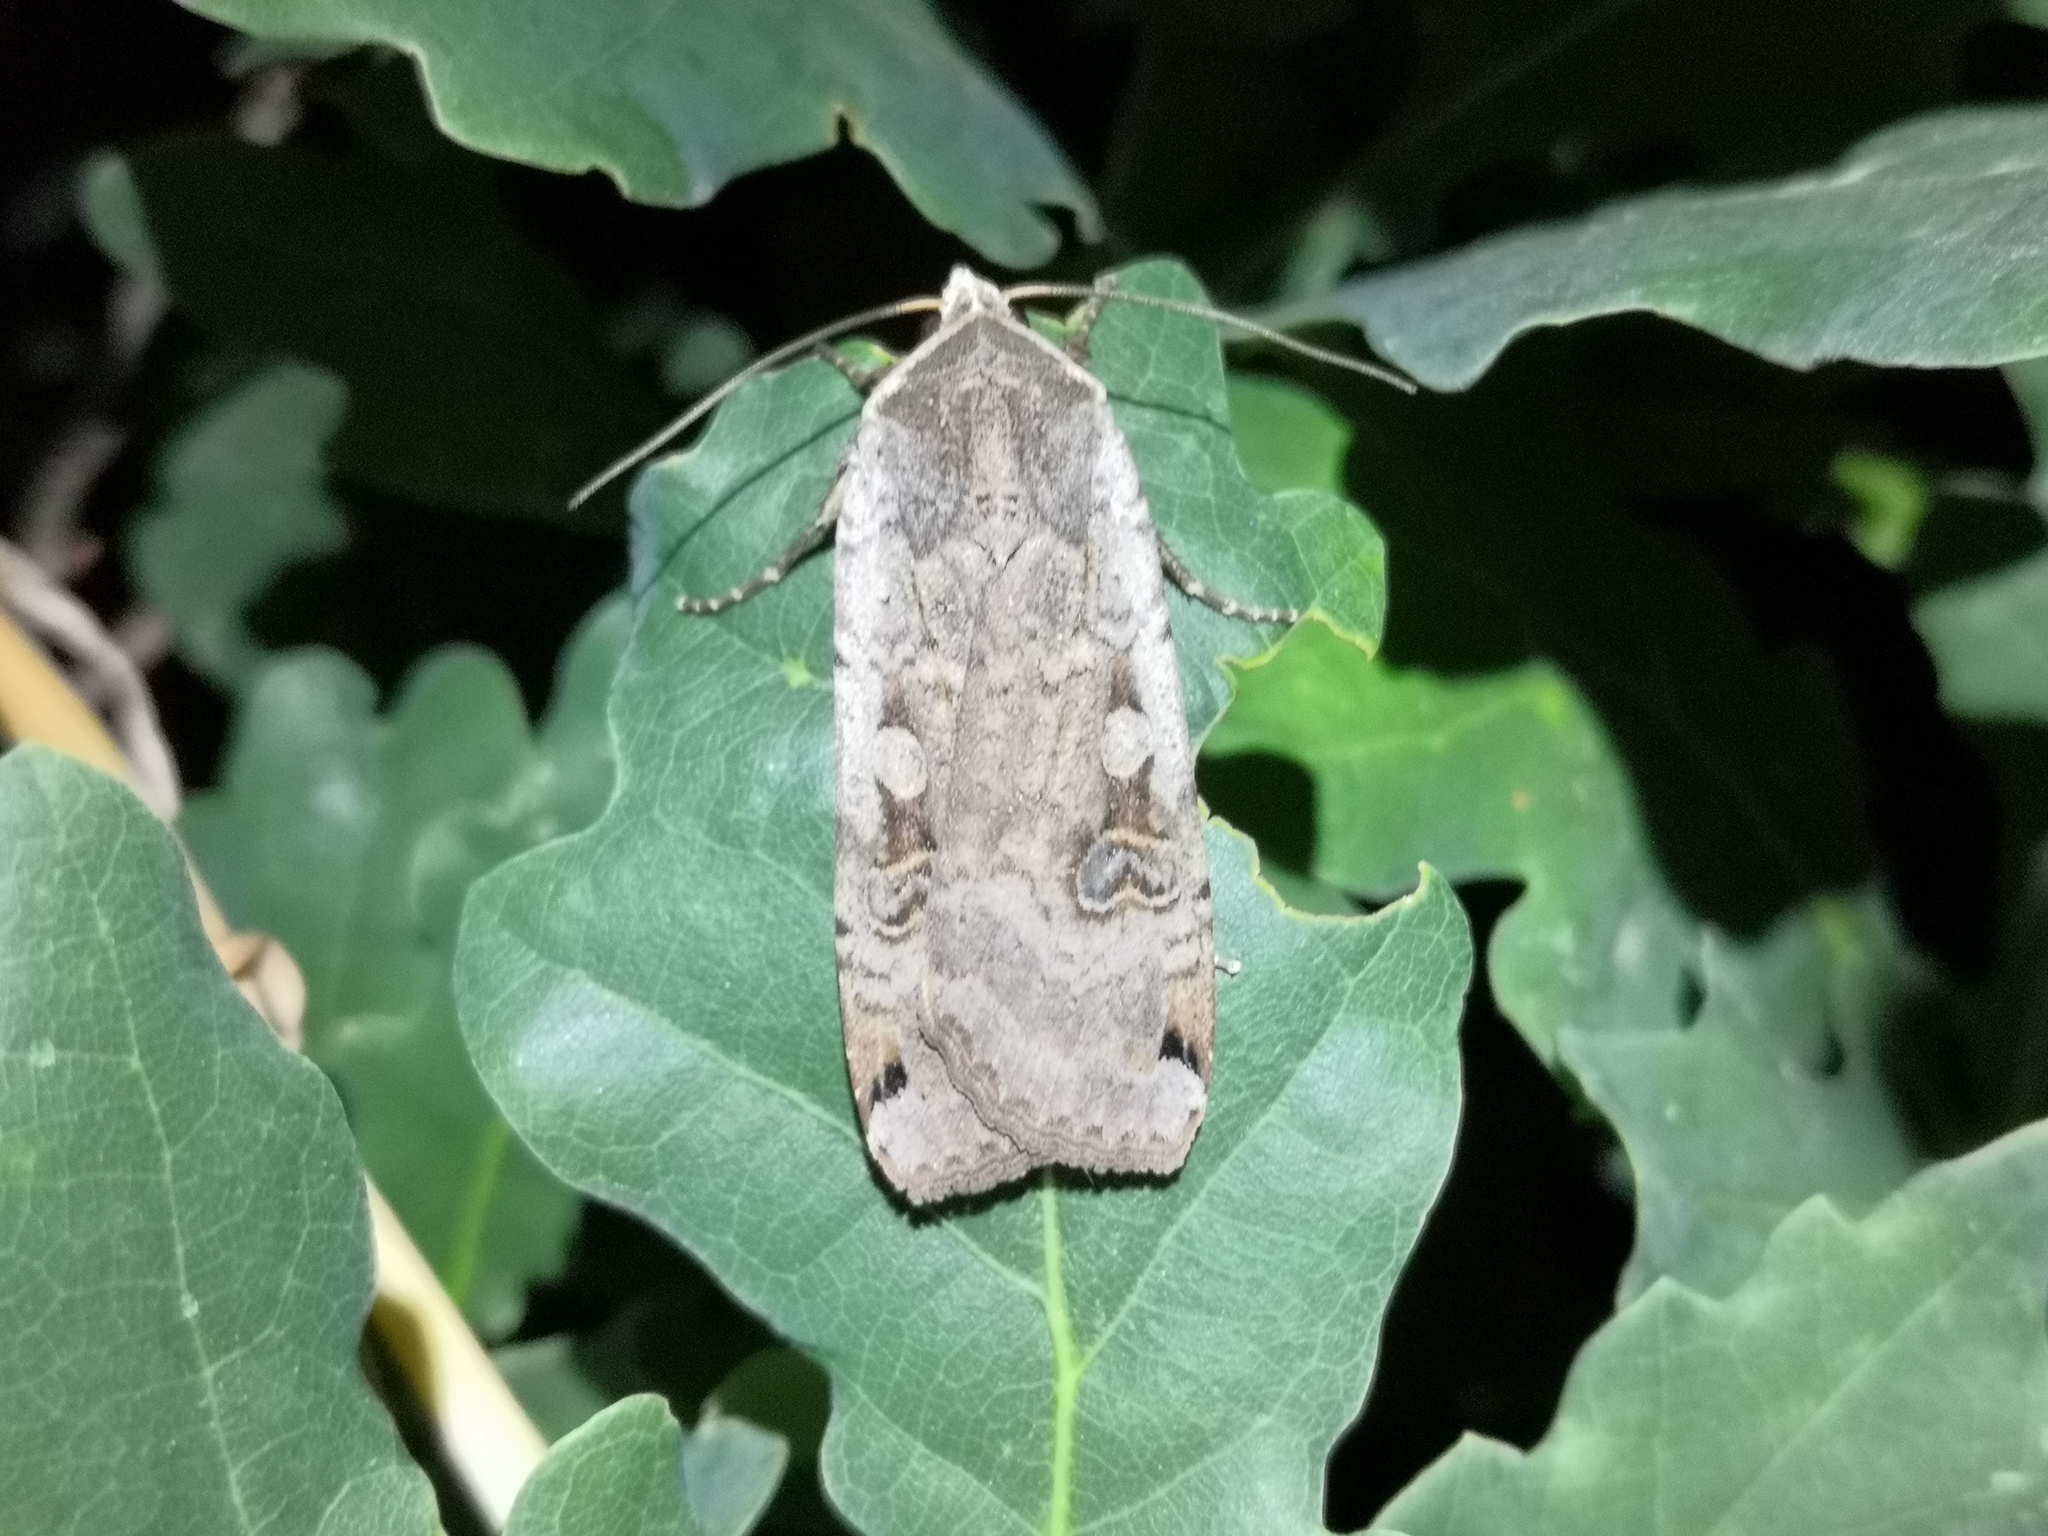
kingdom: Animalia
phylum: Arthropoda
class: Insecta
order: Lepidoptera
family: Noctuidae
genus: Noctua
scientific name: Noctua pronuba
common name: Large yellow underwing
